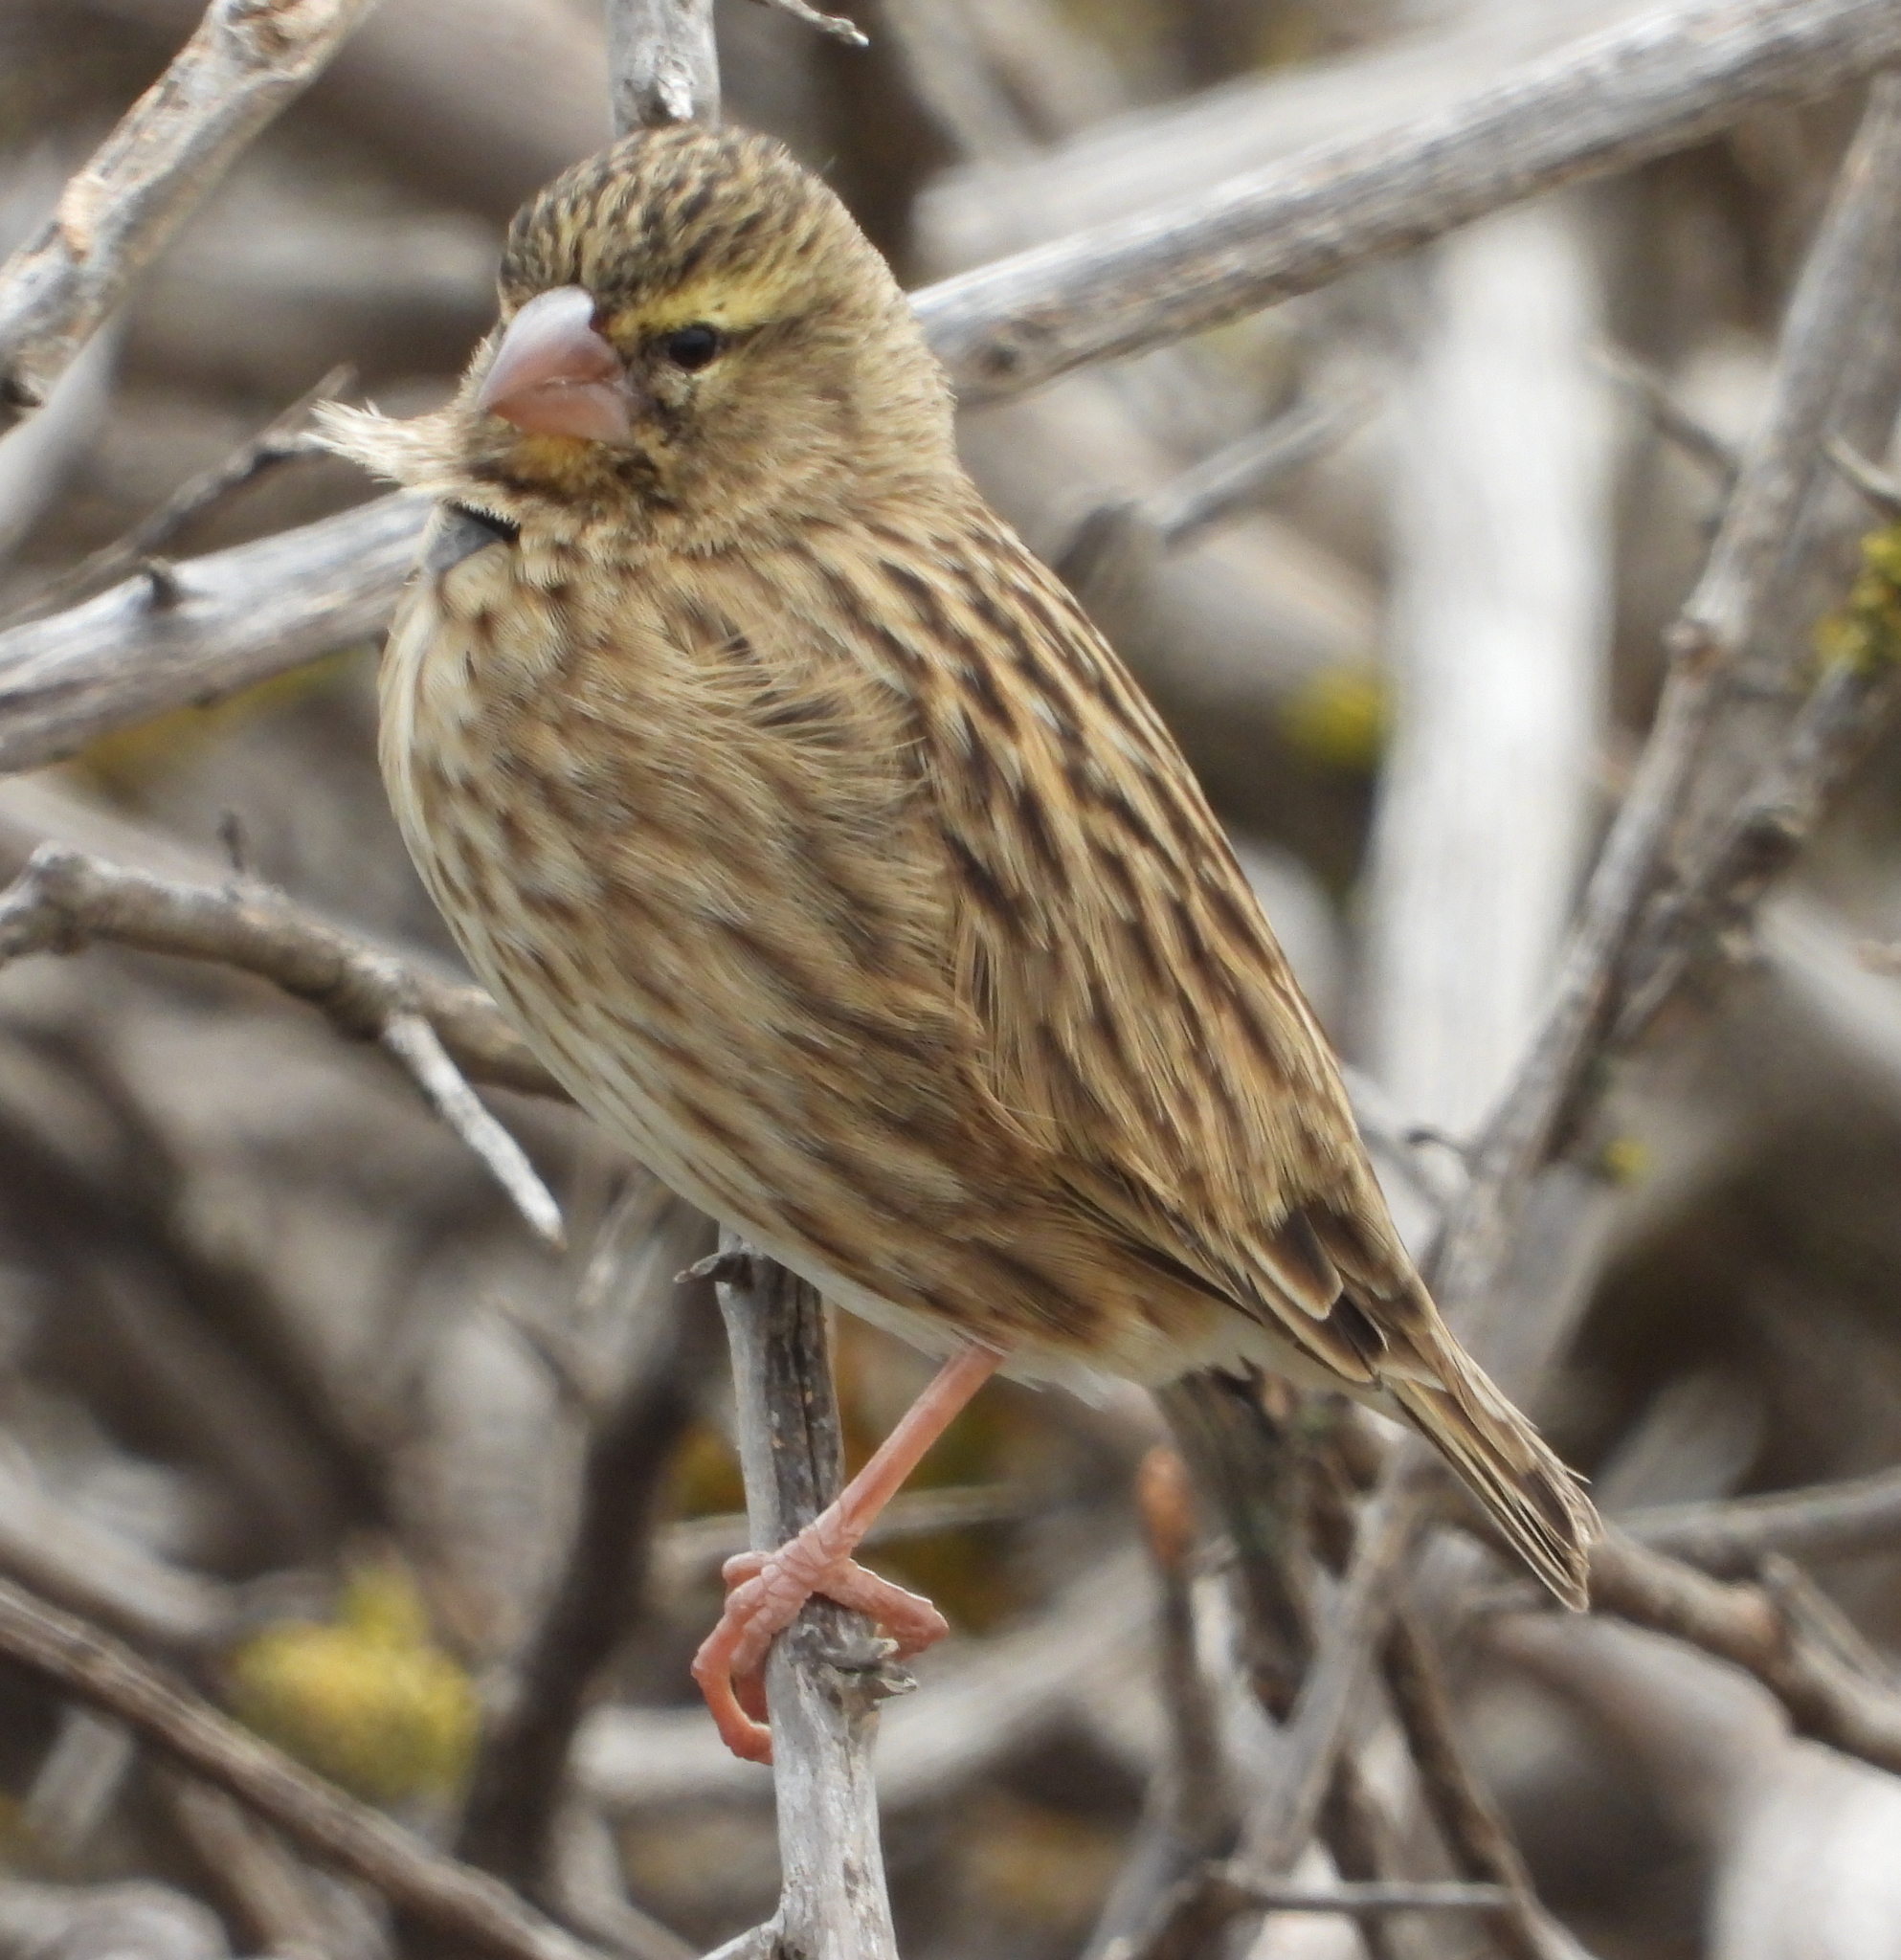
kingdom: Animalia
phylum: Chordata
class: Aves
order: Passeriformes
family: Ploceidae
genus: Euplectes
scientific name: Euplectes orix
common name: Southern red bishop
